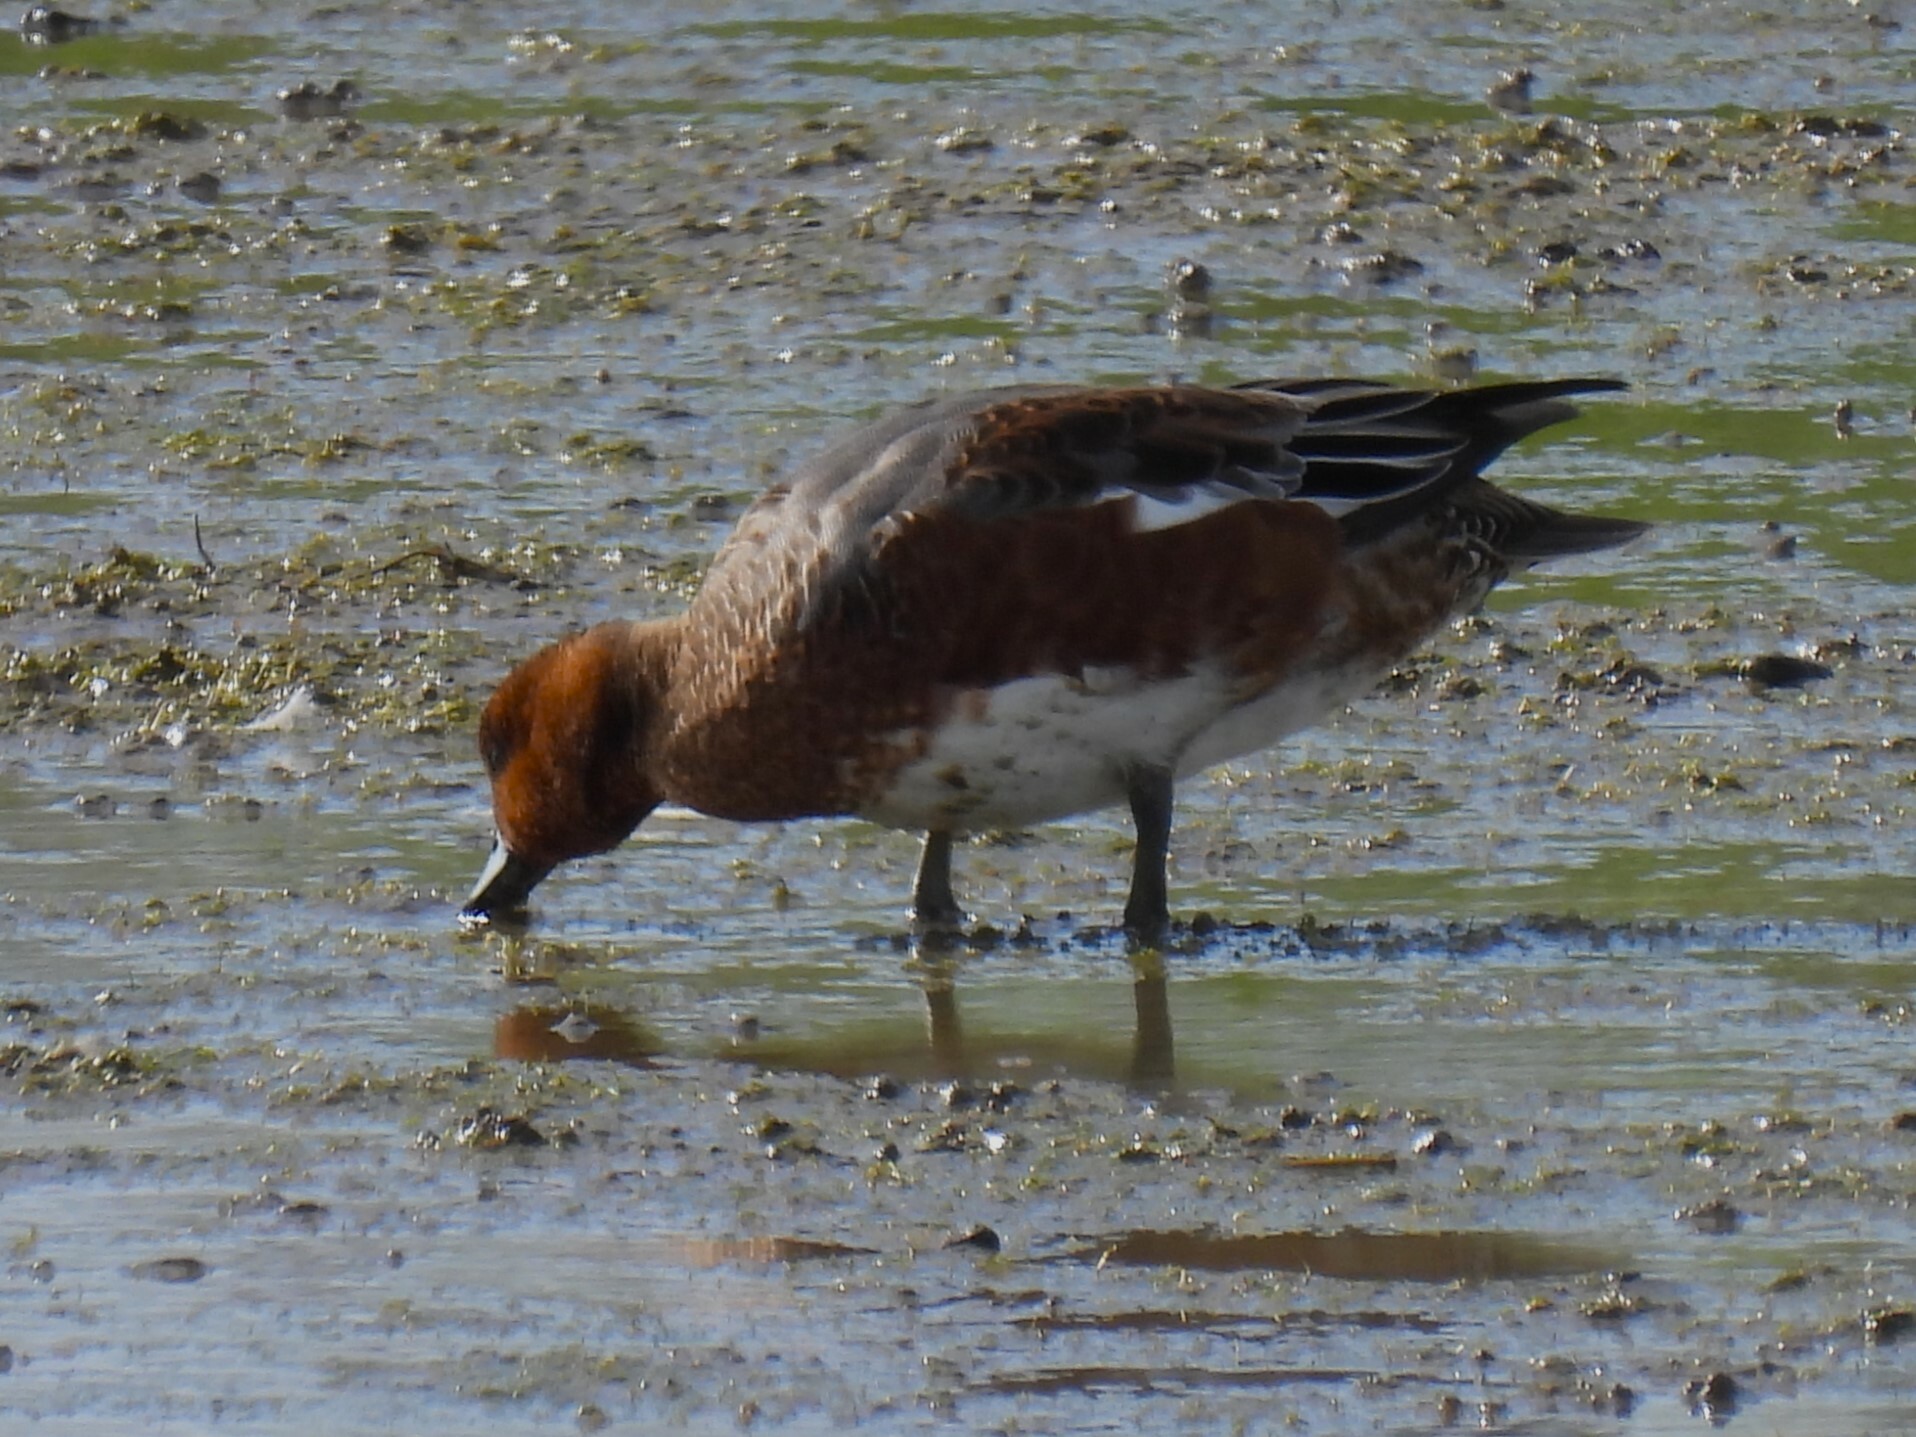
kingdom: Animalia
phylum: Chordata
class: Aves
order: Anseriformes
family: Anatidae
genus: Mareca
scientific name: Mareca penelope
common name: Eurasian wigeon
